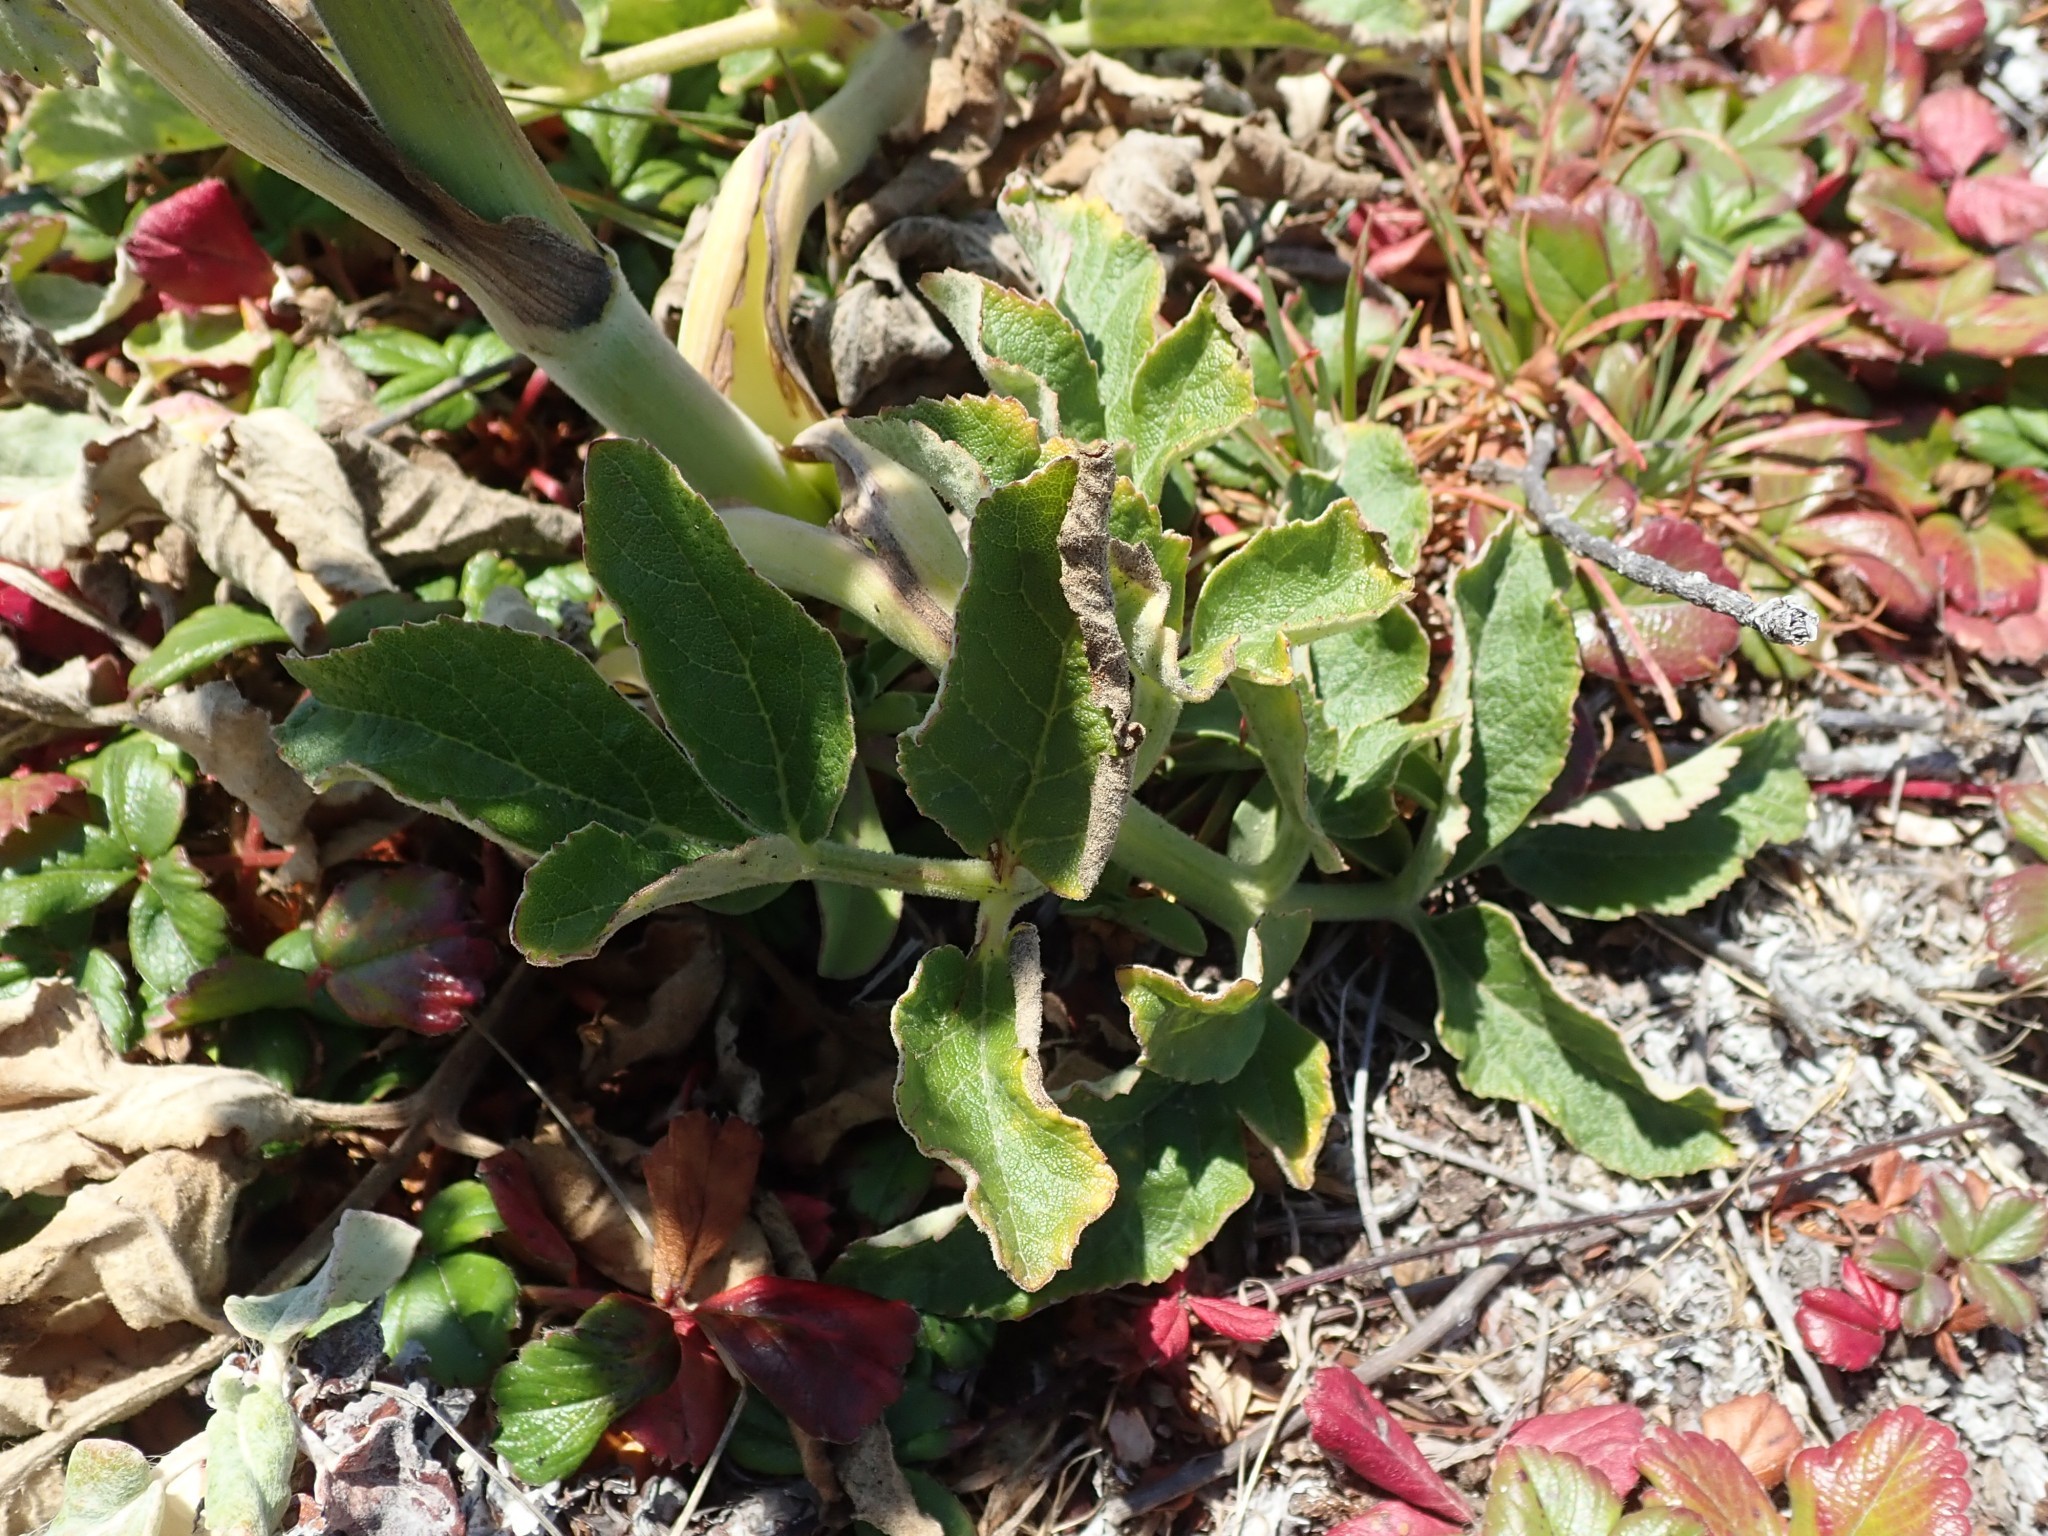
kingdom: Plantae
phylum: Tracheophyta
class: Magnoliopsida
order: Apiales
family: Apiaceae
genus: Angelica
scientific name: Angelica hendersonii
